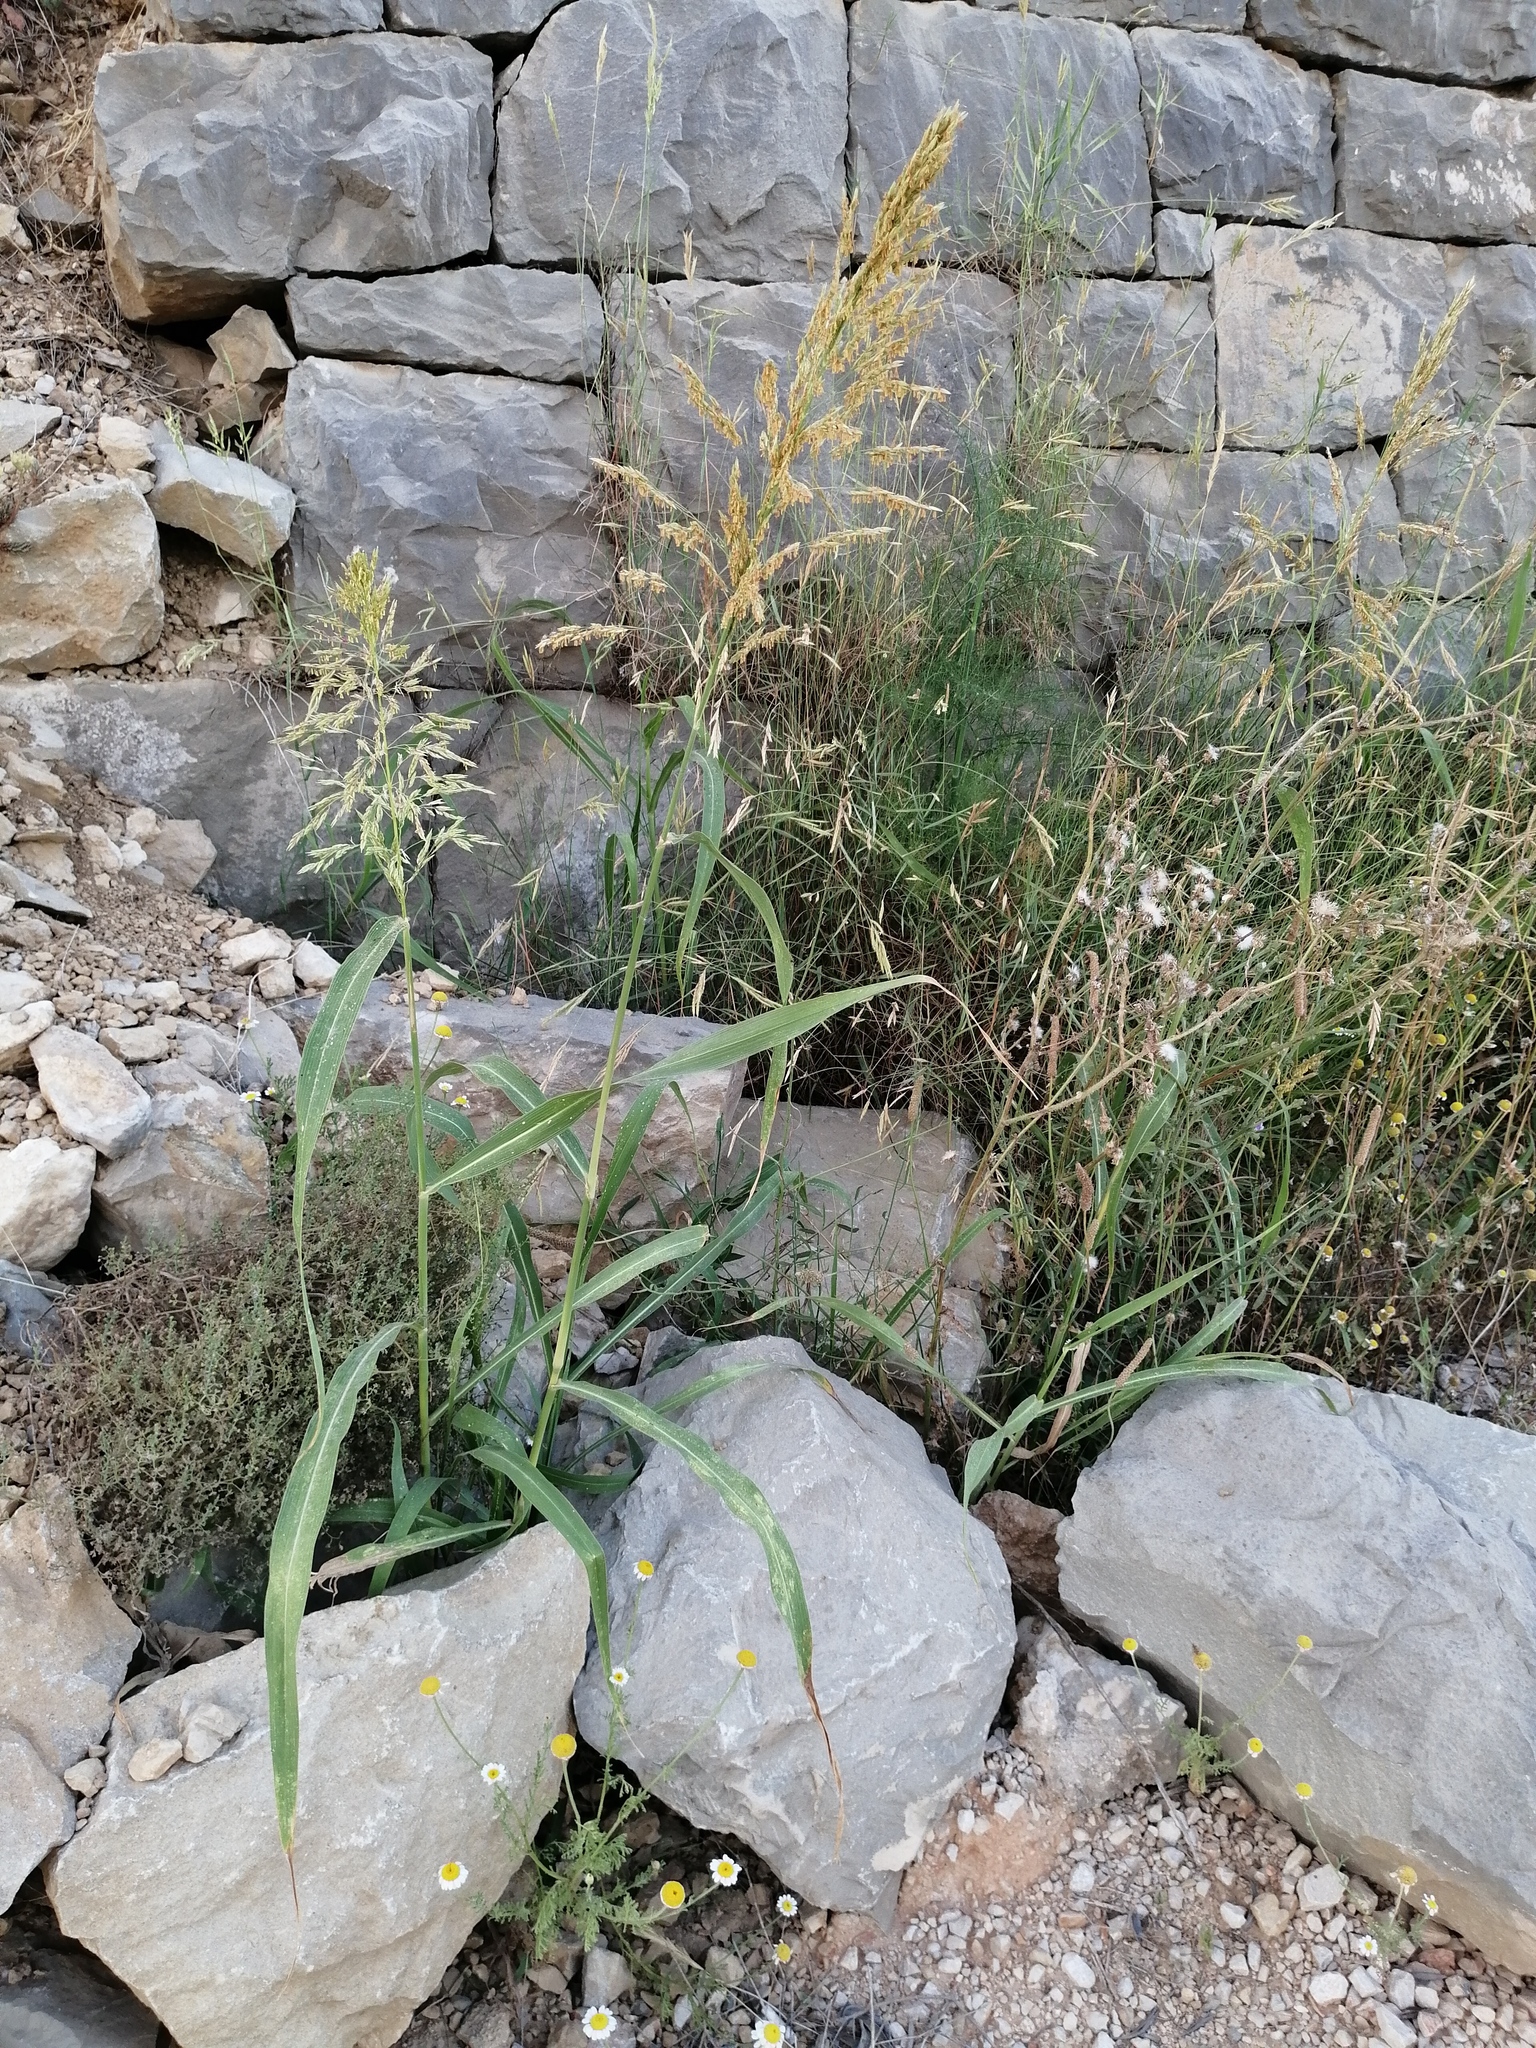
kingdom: Plantae
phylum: Tracheophyta
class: Liliopsida
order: Poales
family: Poaceae
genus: Sorghum
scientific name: Sorghum halepense
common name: Johnson-grass
